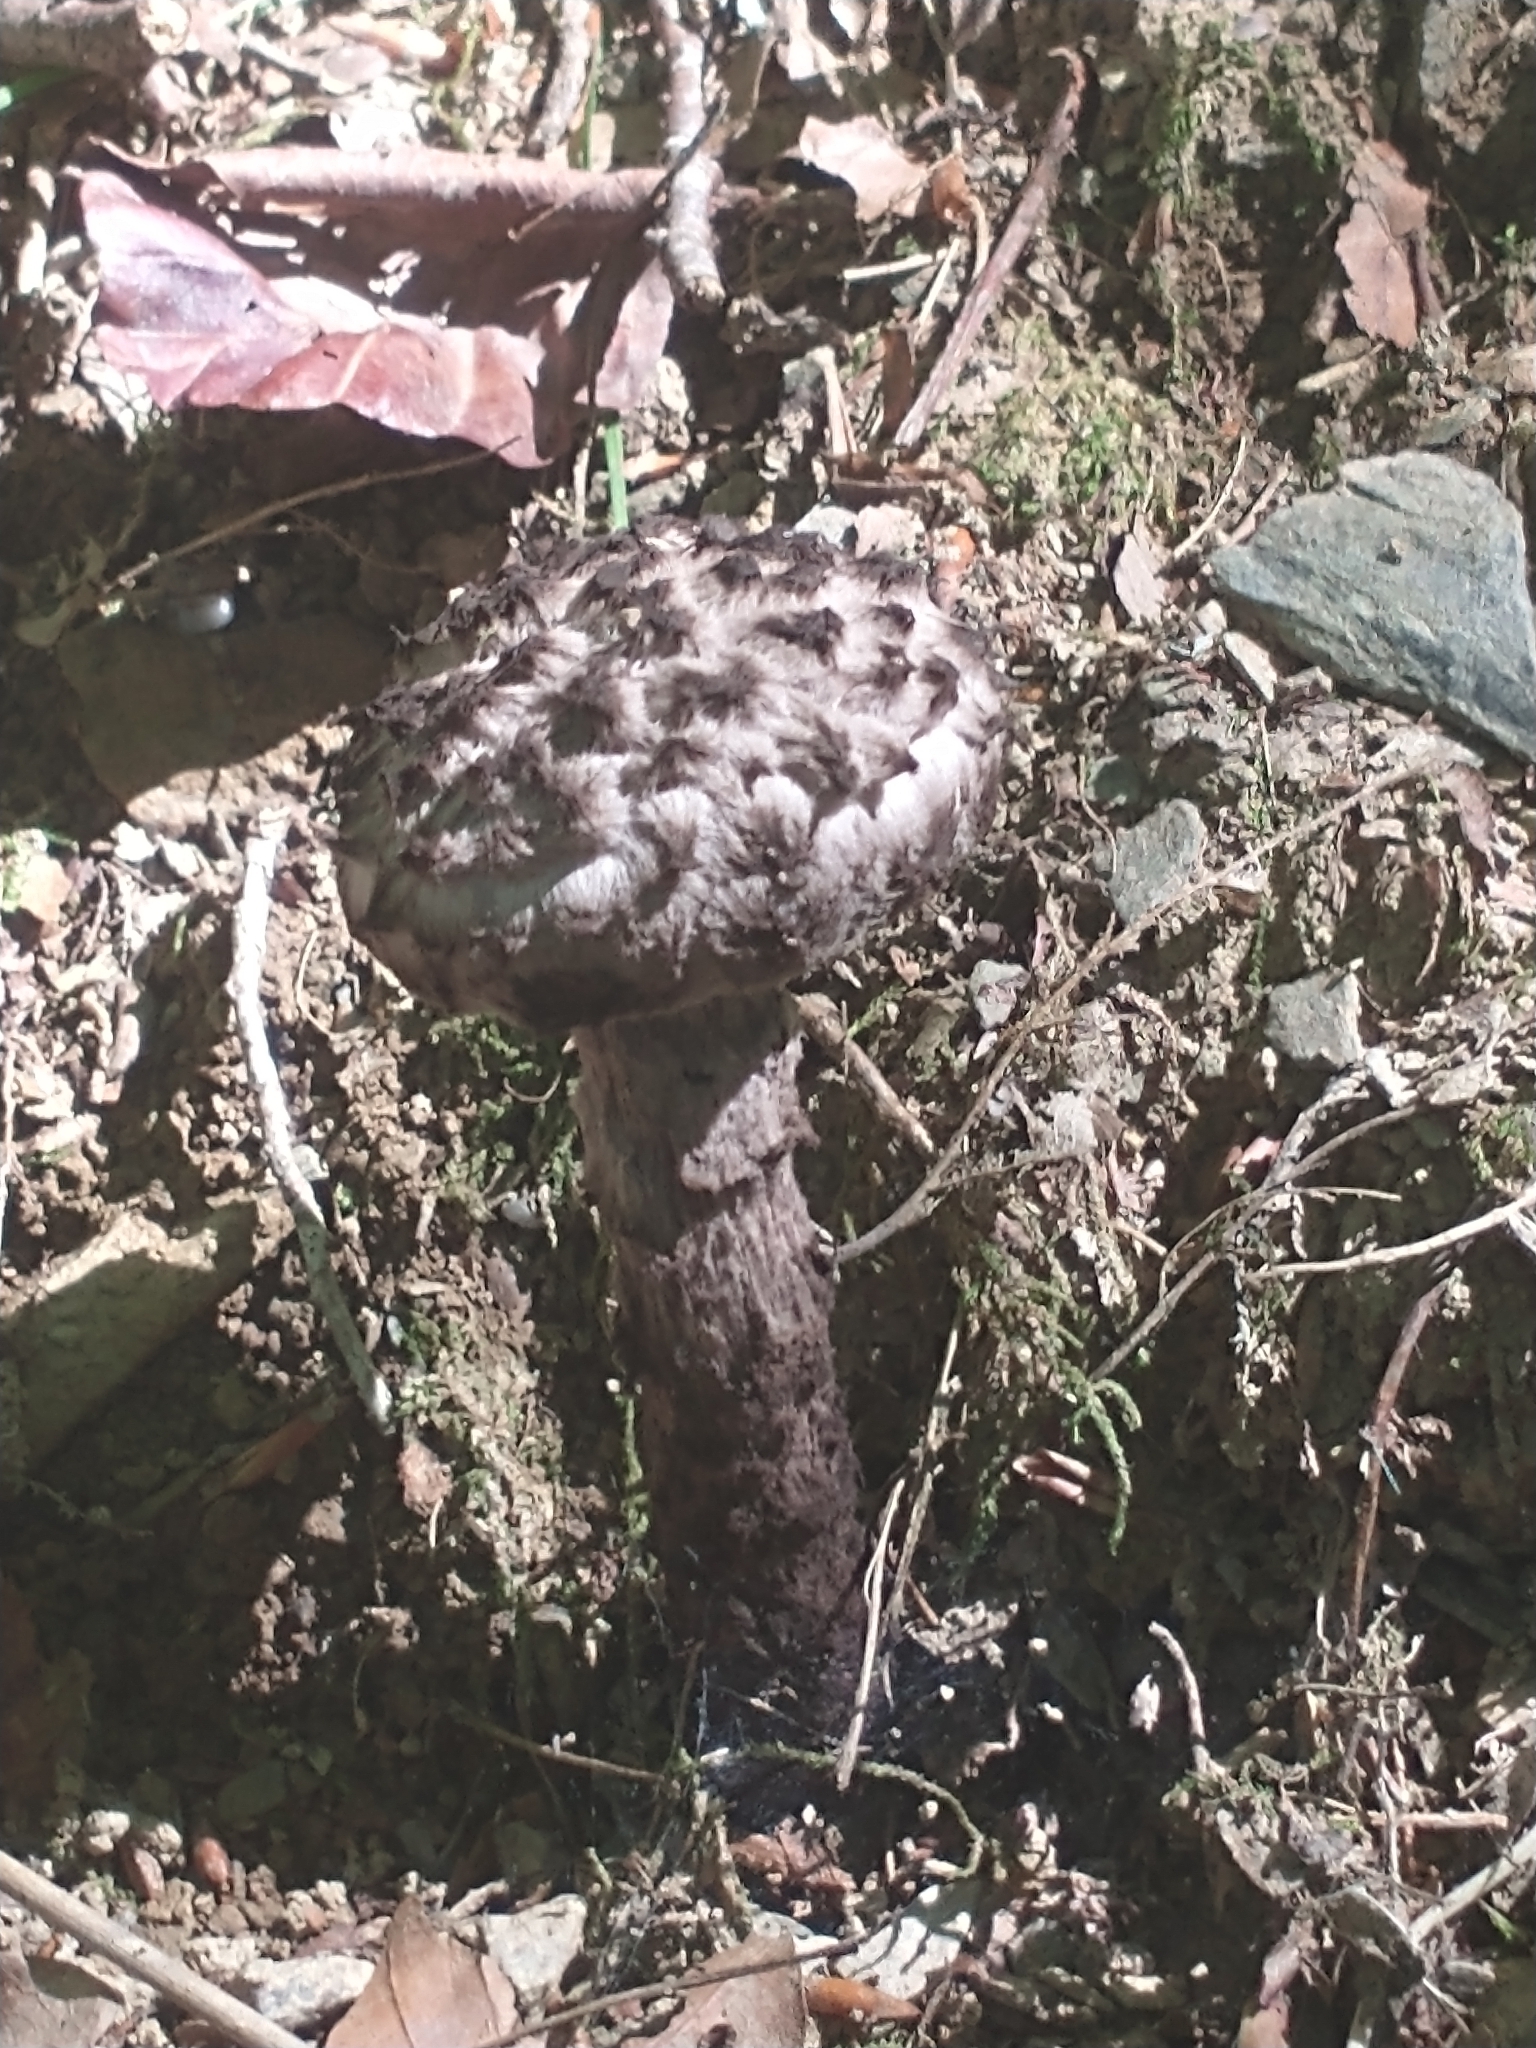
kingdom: Fungi
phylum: Basidiomycota
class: Agaricomycetes
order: Boletales
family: Boletaceae
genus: Strobilomyces
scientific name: Strobilomyces strobilaceus
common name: Old man of the woods
